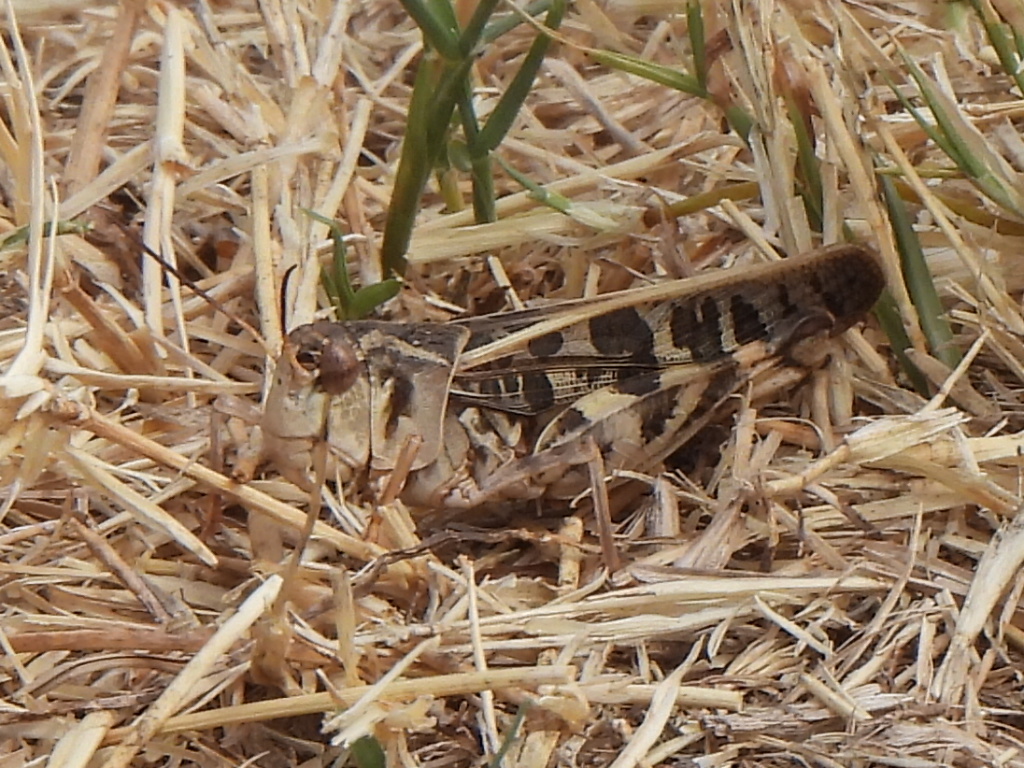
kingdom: Animalia
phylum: Arthropoda
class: Insecta
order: Orthoptera
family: Acrididae
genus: Hippiscus
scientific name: Hippiscus ocelote
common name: Wrinkled grasshopper
